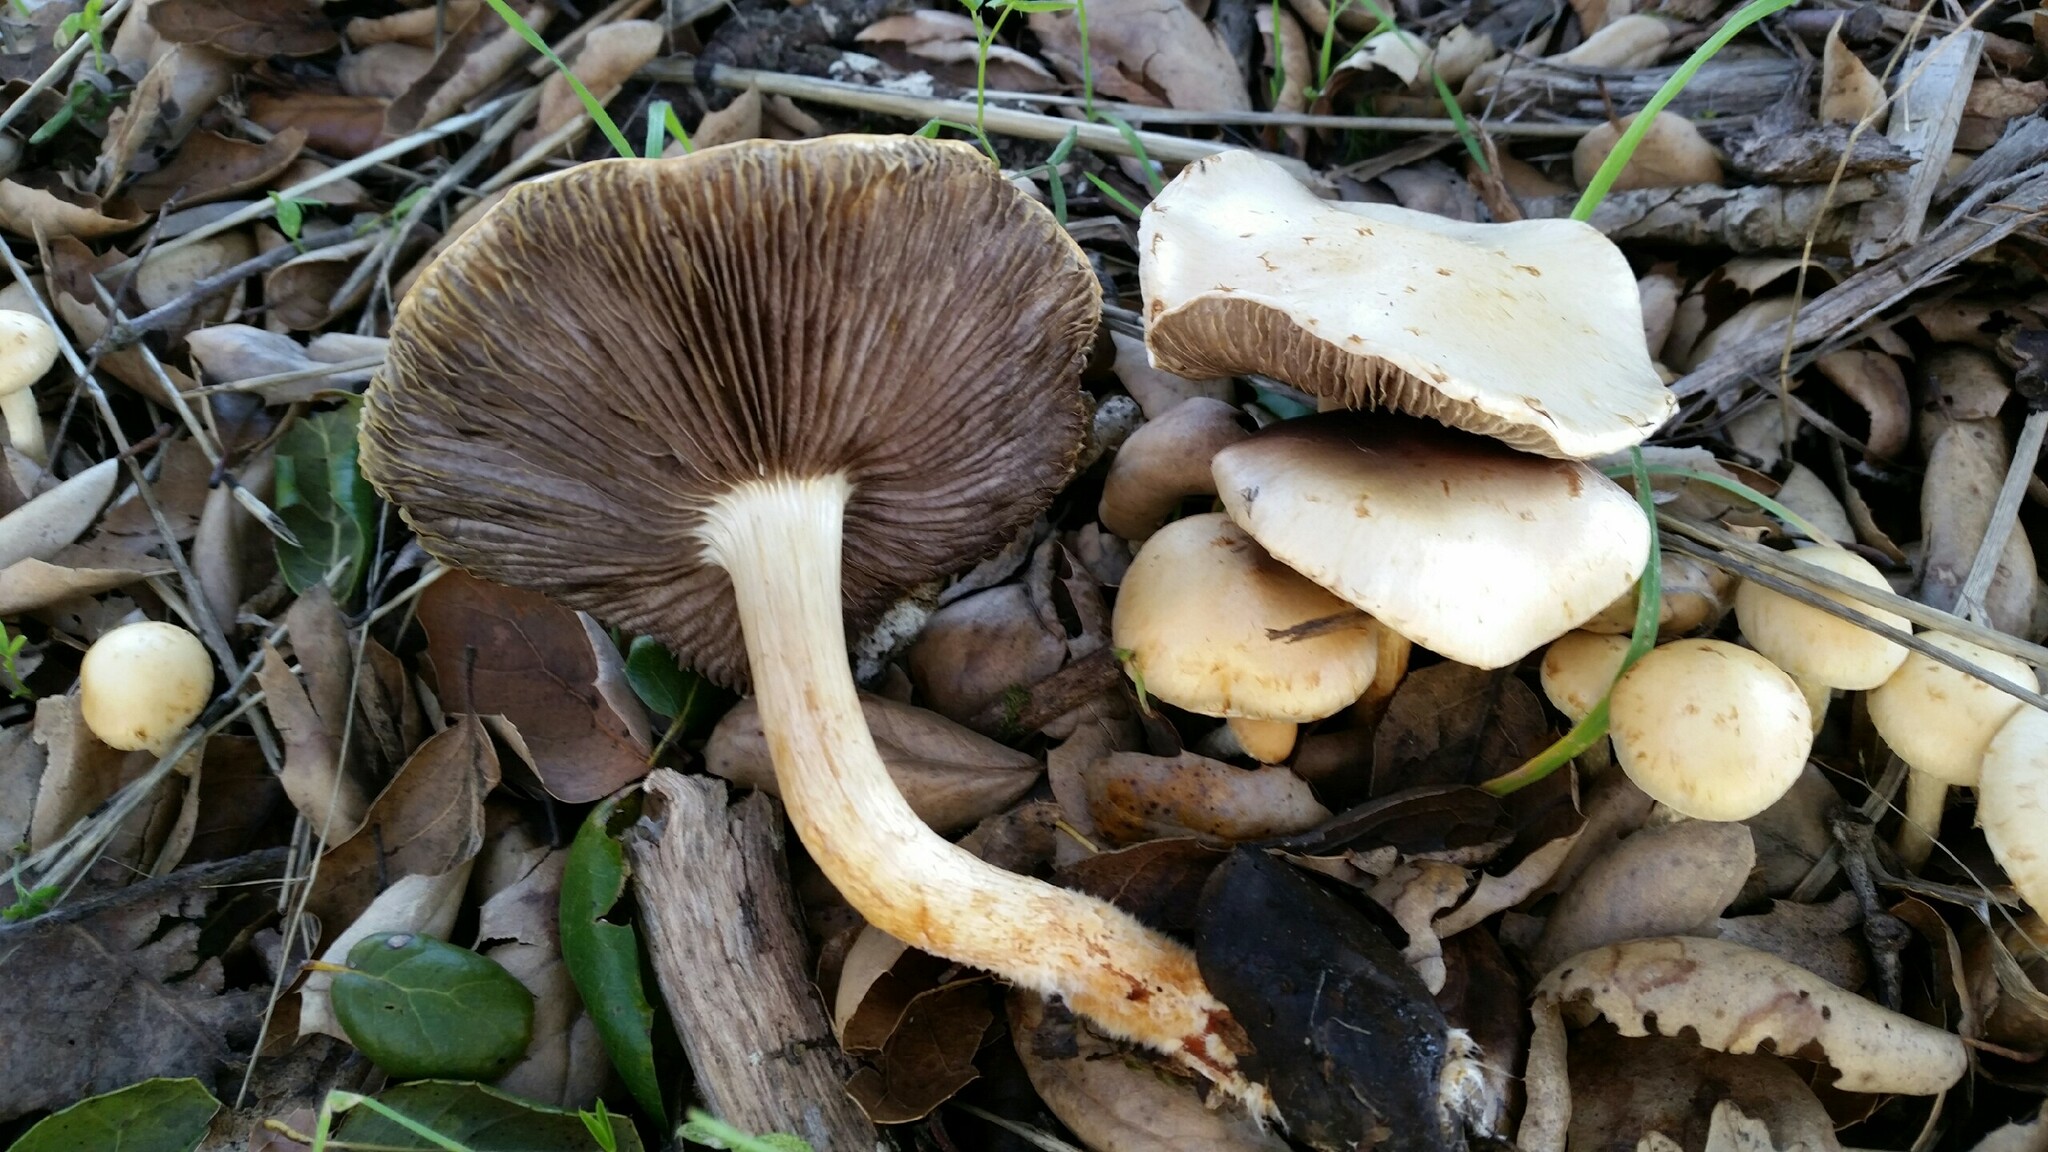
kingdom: Fungi
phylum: Basidiomycota
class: Agaricomycetes
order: Agaricales
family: Strophariaceae
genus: Leratiomyces
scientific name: Leratiomyces percevalii
